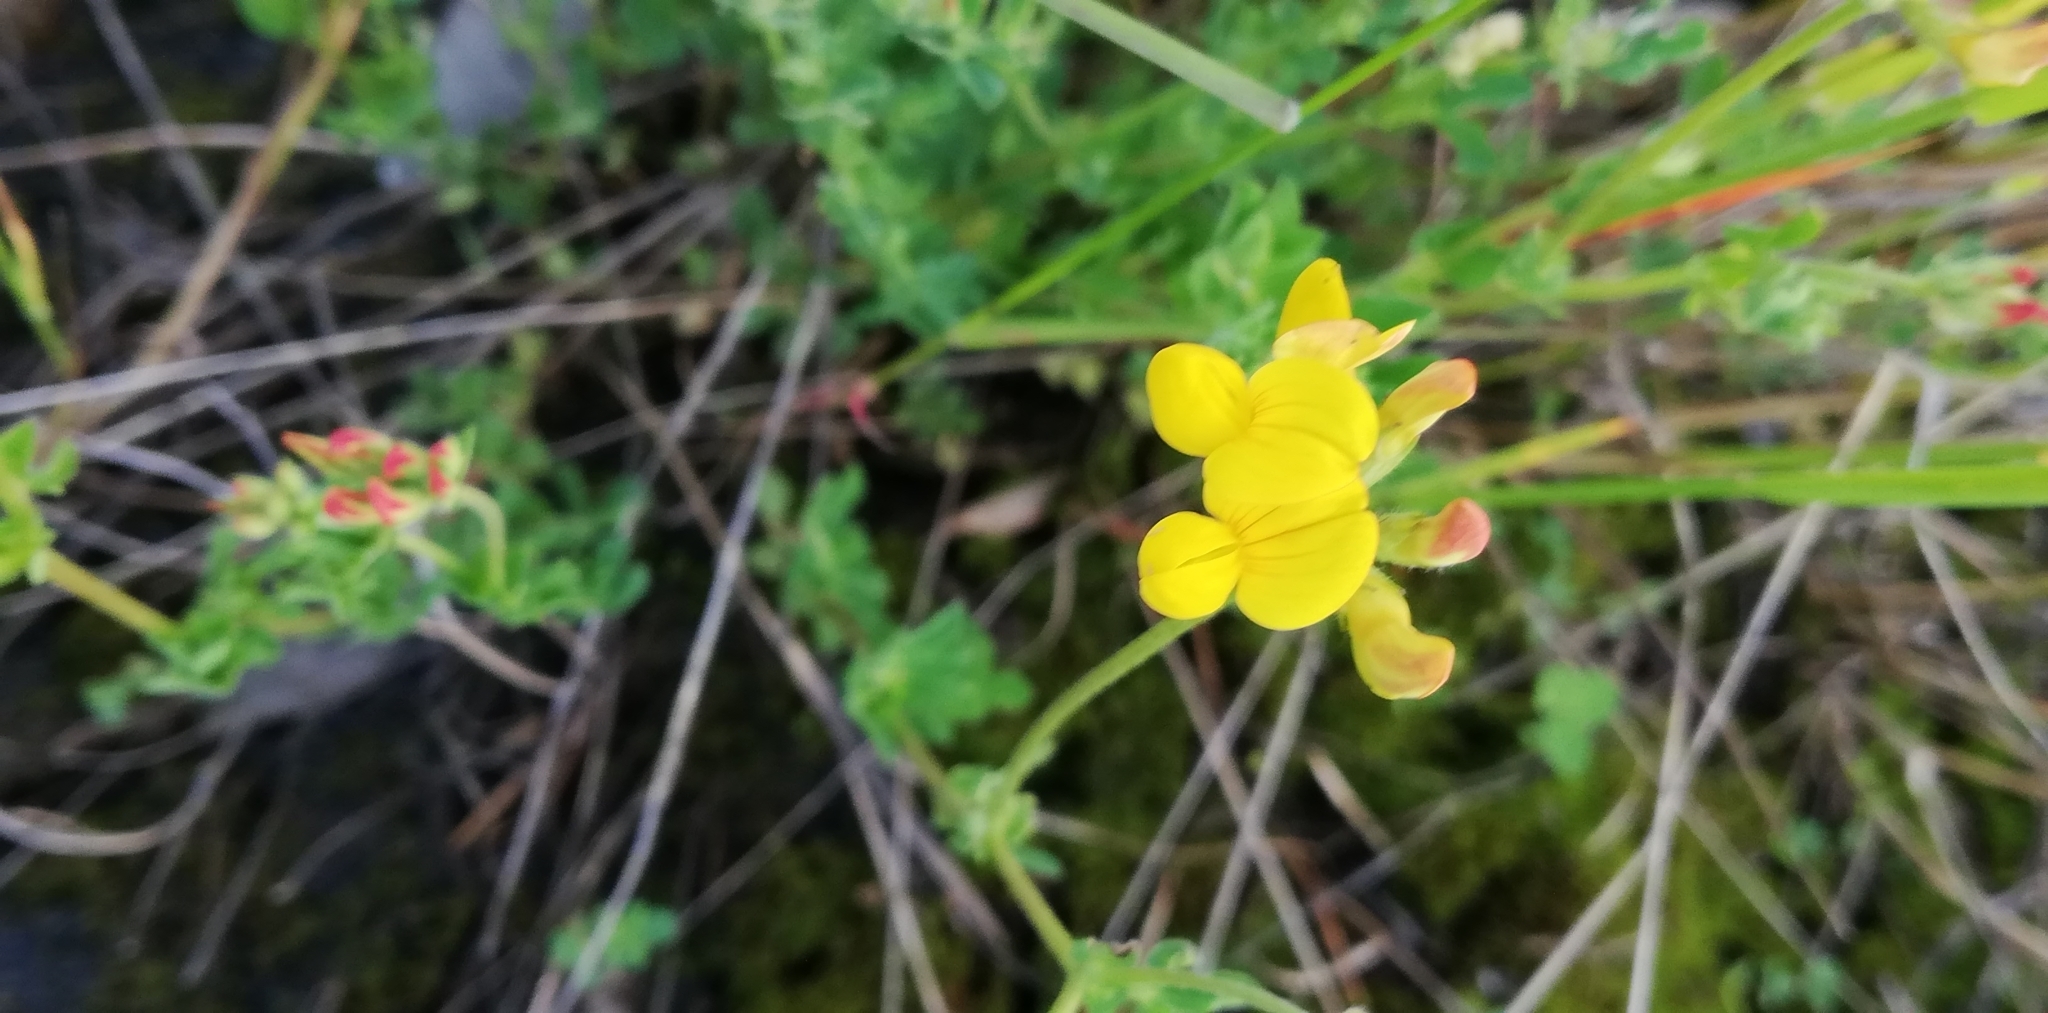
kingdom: Plantae
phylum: Tracheophyta
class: Magnoliopsida
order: Fabales
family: Fabaceae
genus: Lotus
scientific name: Lotus corniculatus
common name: Common bird's-foot-trefoil
